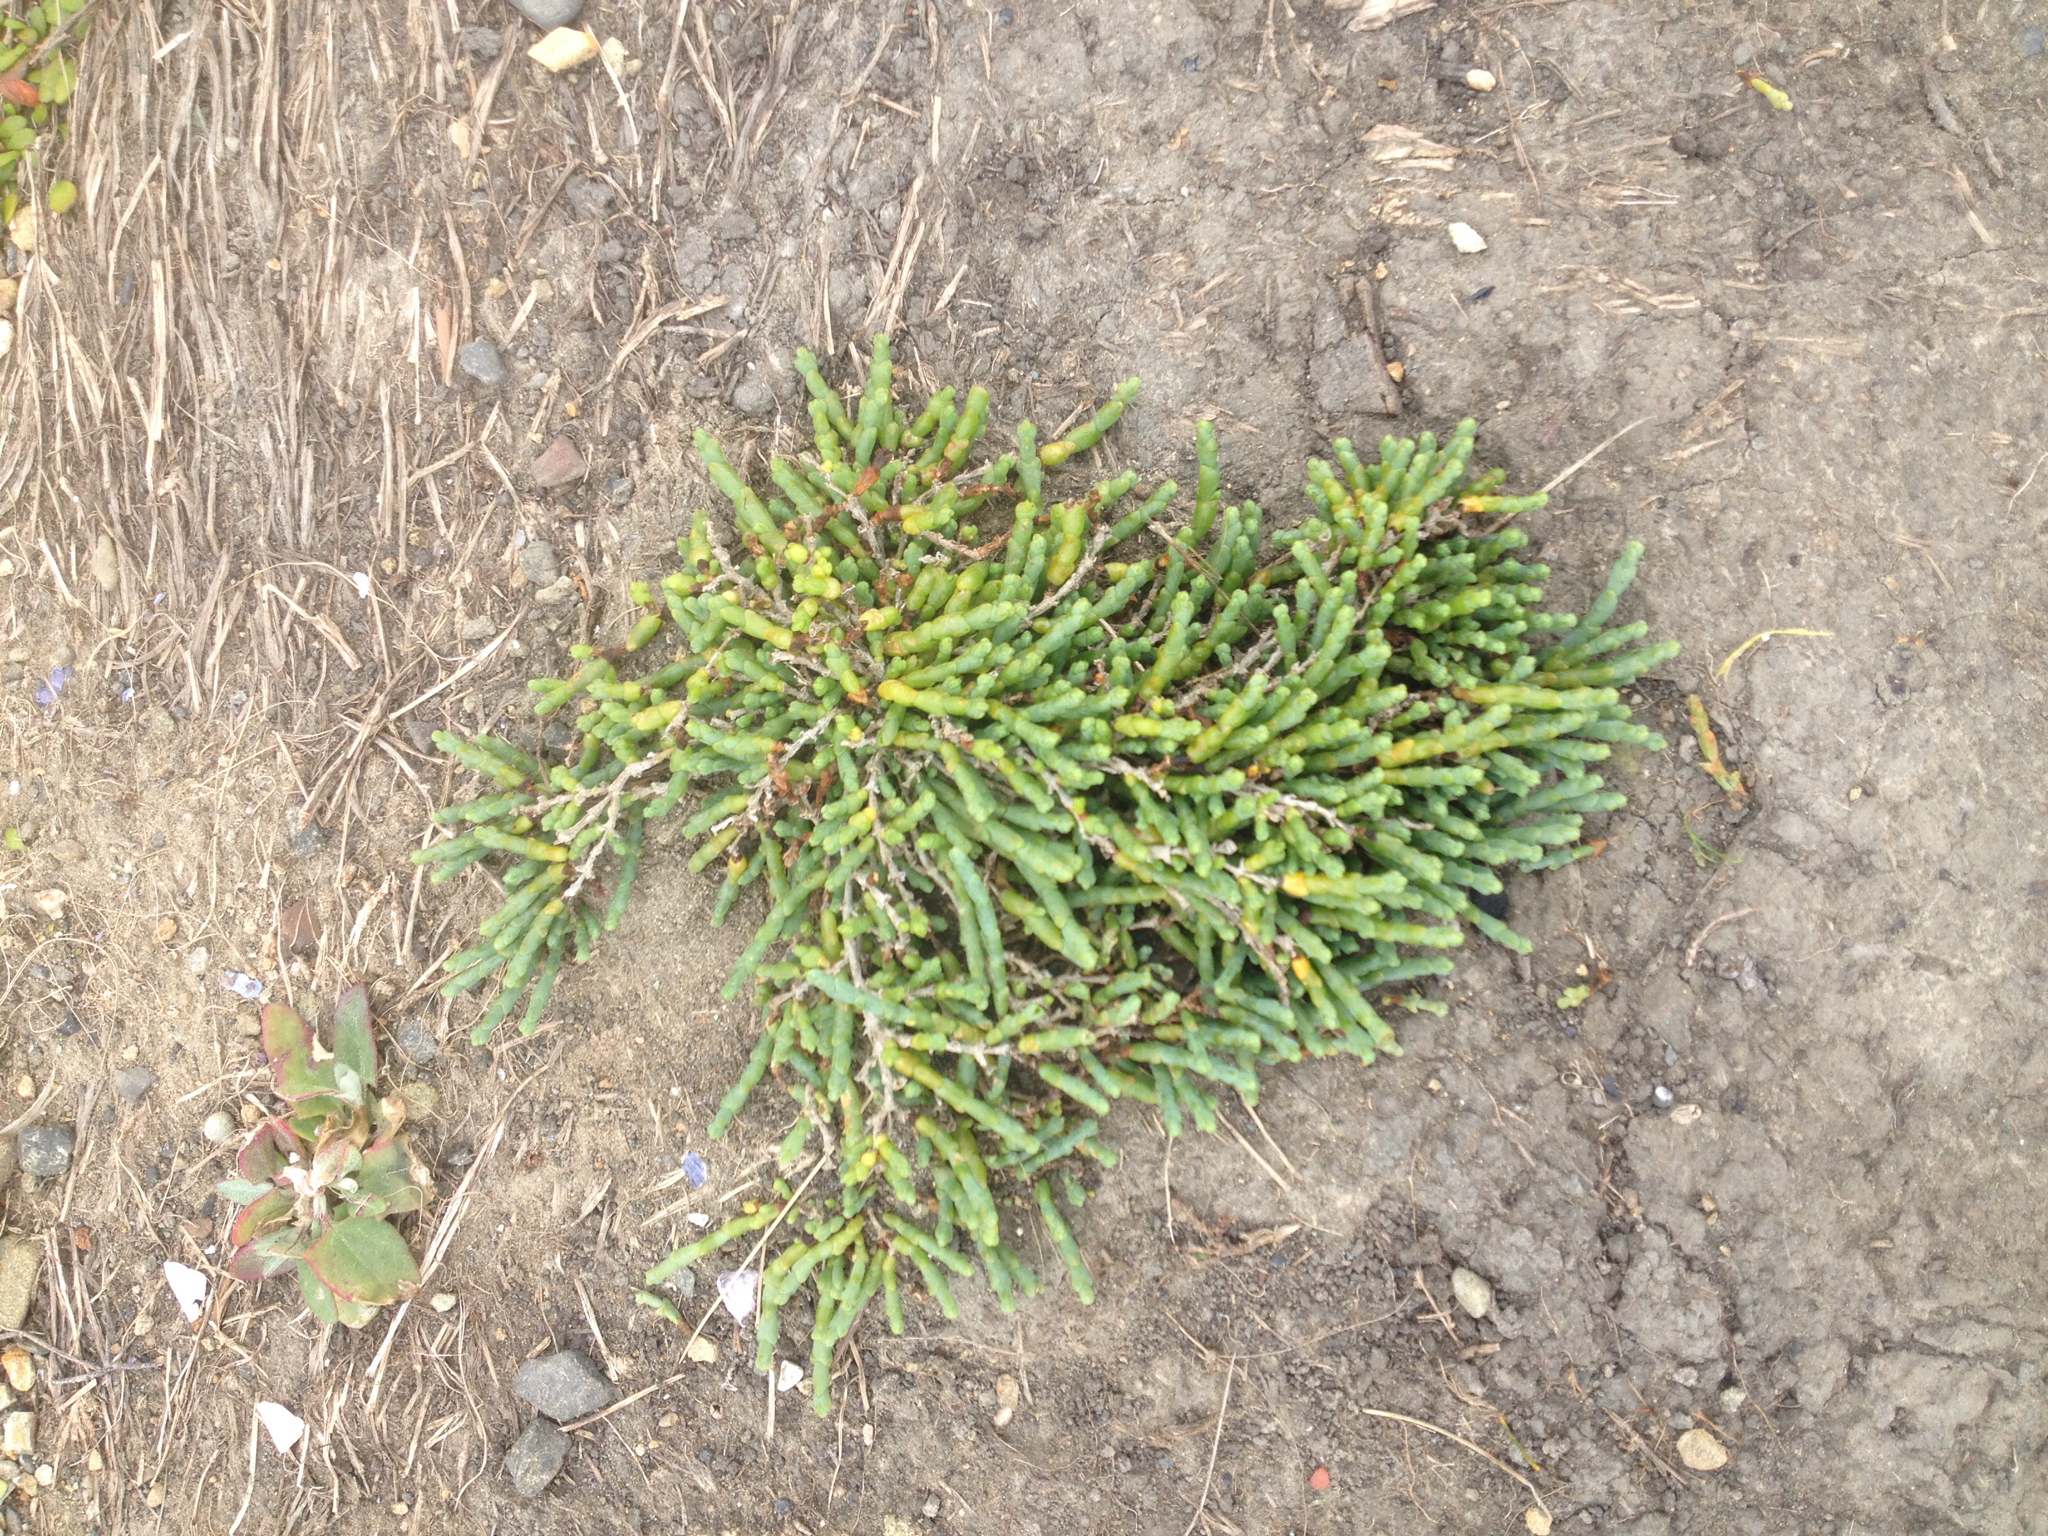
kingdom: Plantae
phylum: Tracheophyta
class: Magnoliopsida
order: Caryophyllales
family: Amaranthaceae
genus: Salicornia
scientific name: Salicornia quinqueflora
